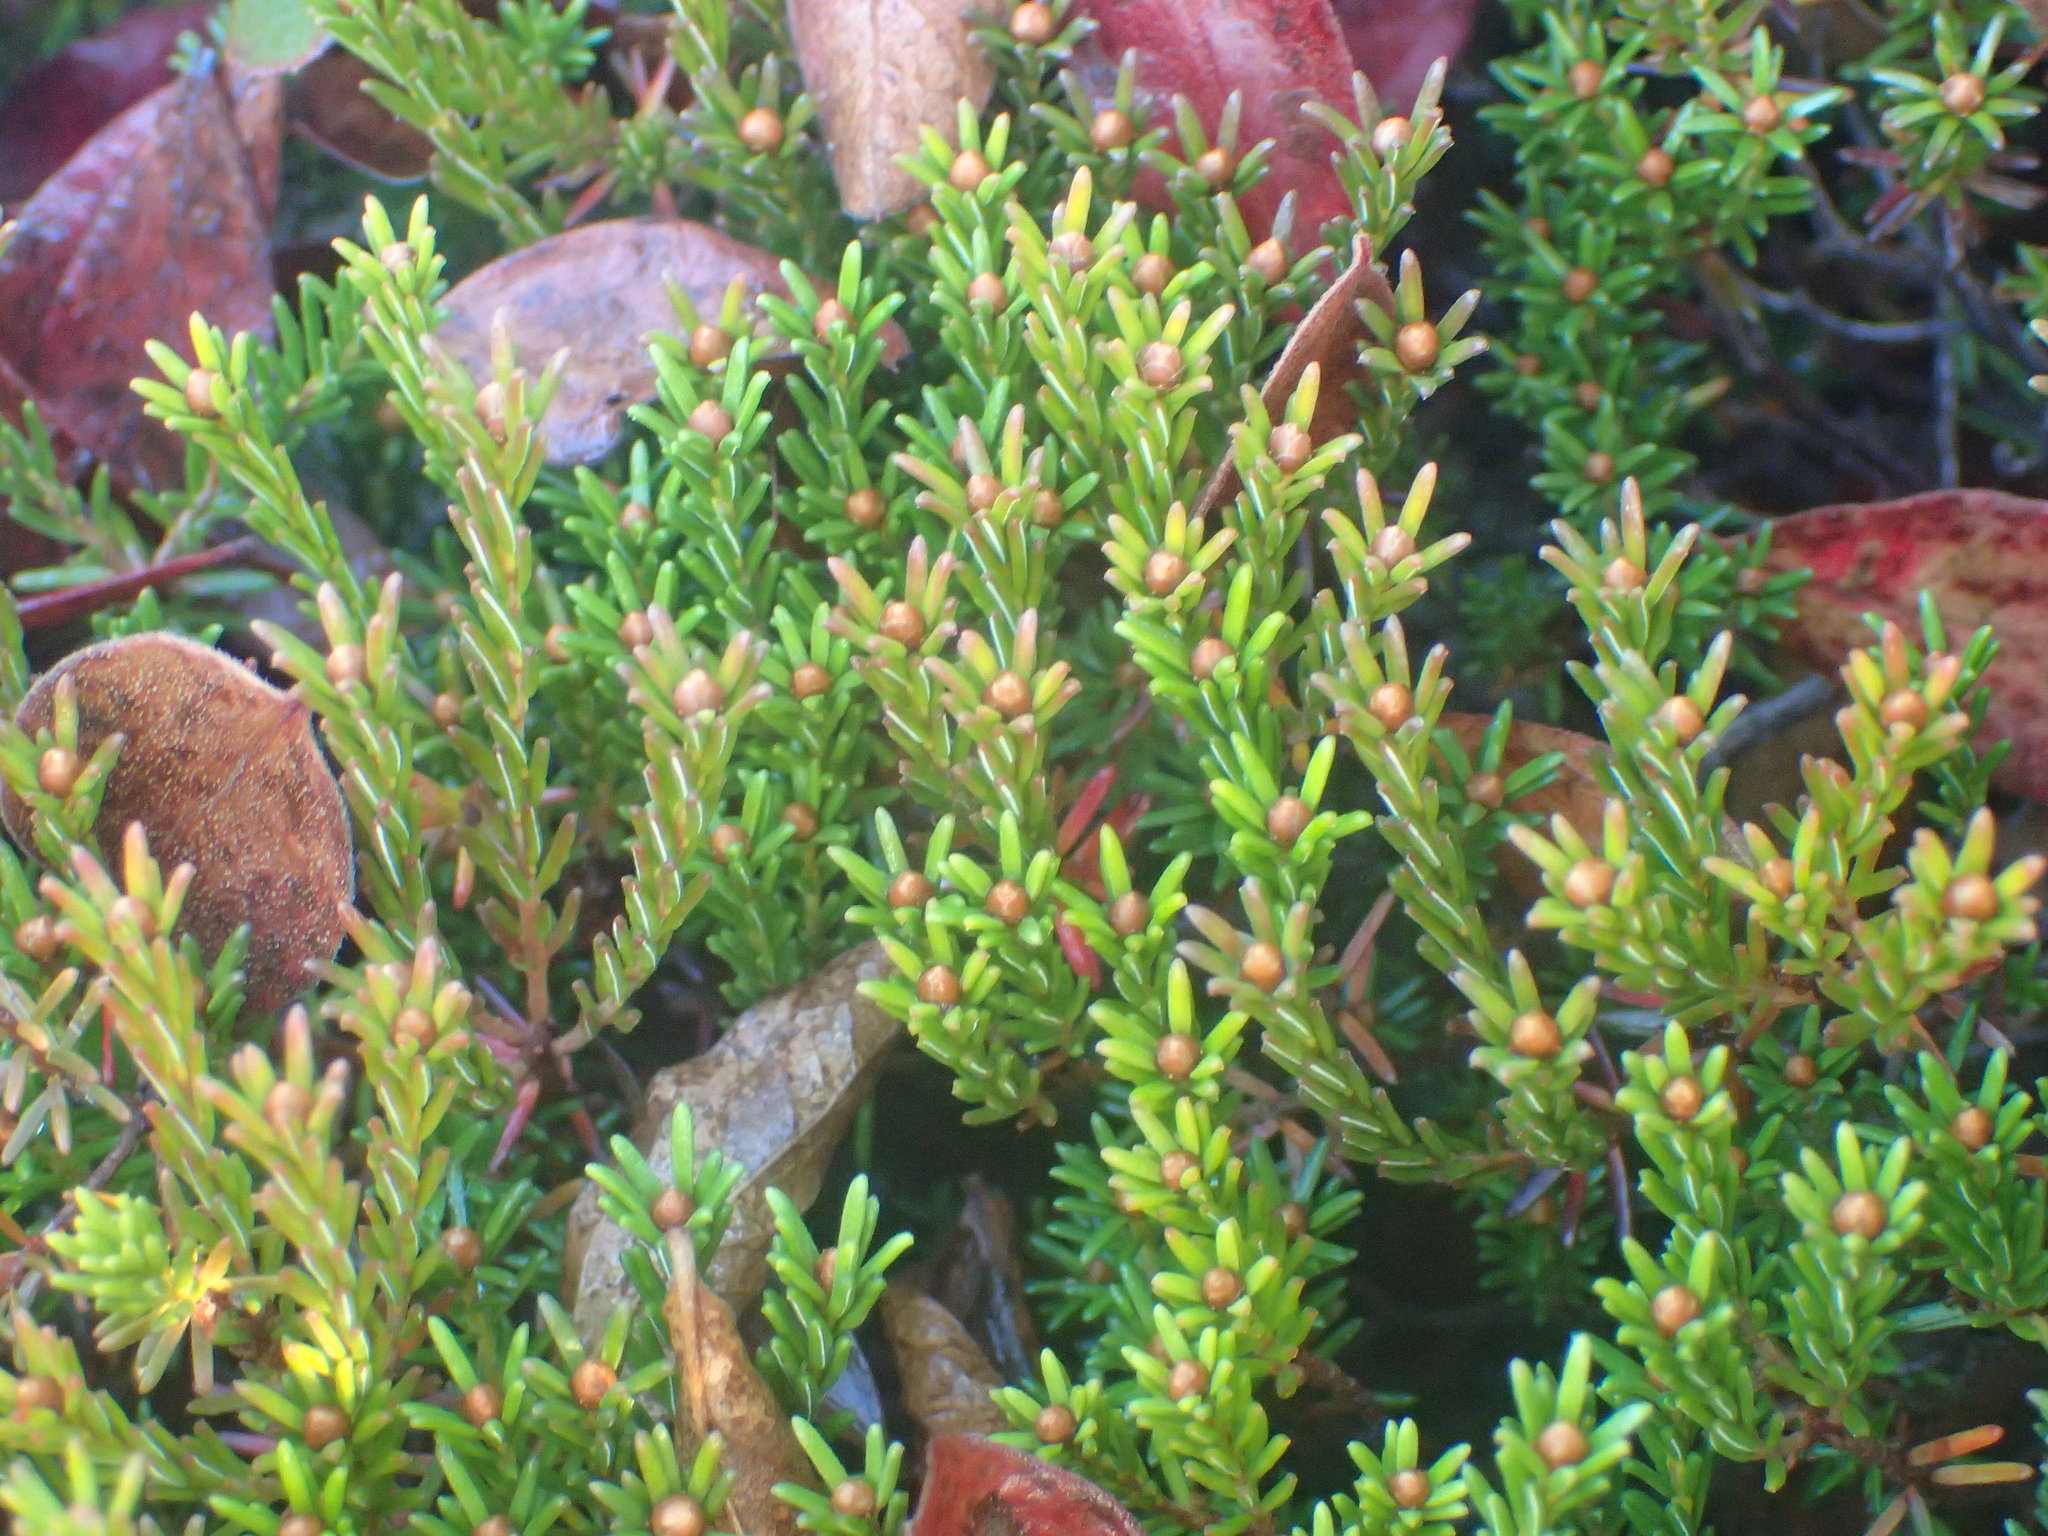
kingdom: Plantae
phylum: Tracheophyta
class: Magnoliopsida
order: Ericales
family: Ericaceae
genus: Corema
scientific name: Corema conradii
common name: Broom-crowberry
